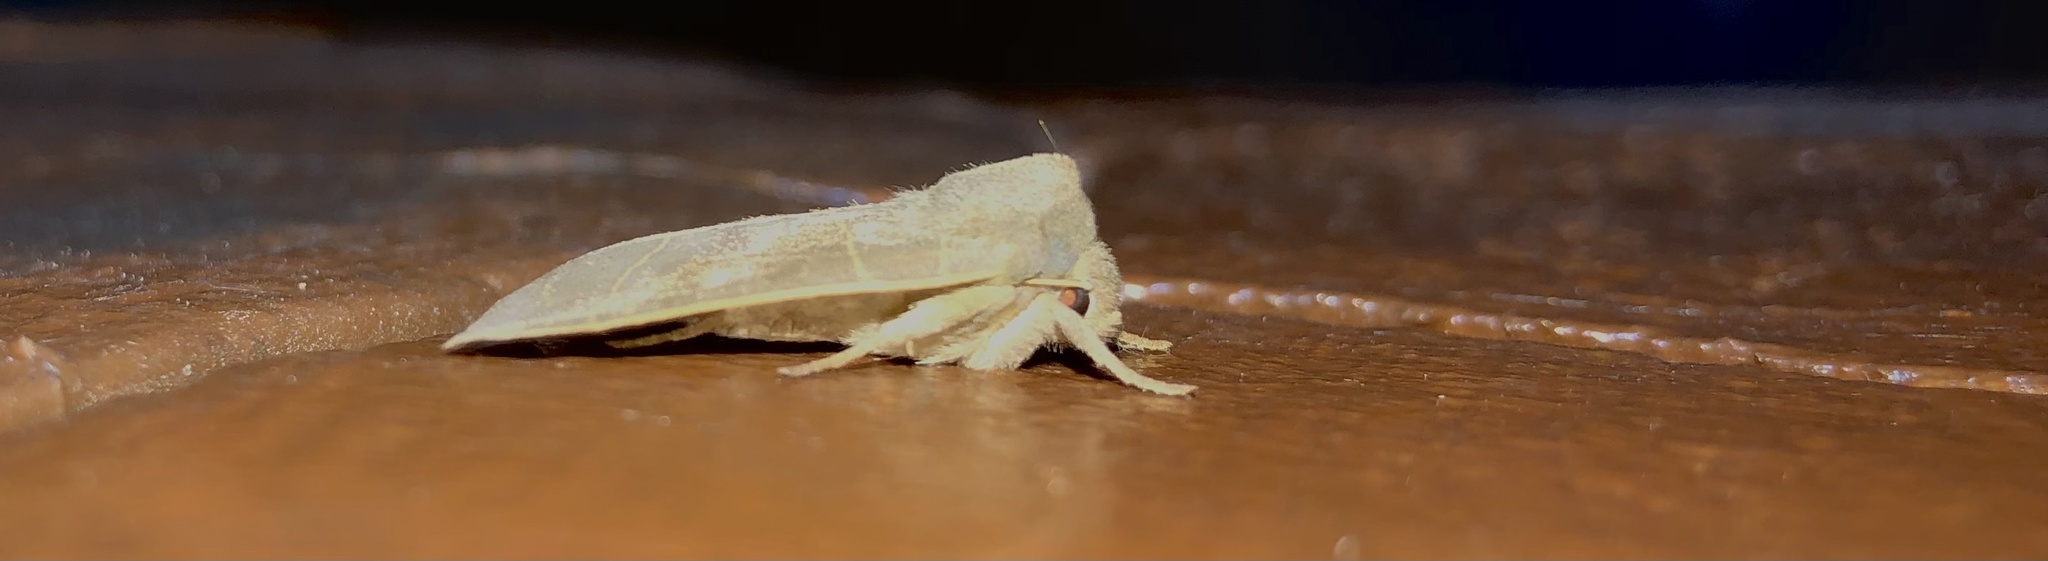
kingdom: Animalia
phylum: Arthropoda
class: Insecta
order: Lepidoptera
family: Noctuidae
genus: Ipimorpha
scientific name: Ipimorpha pleonectusa
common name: Even-lined sallow
